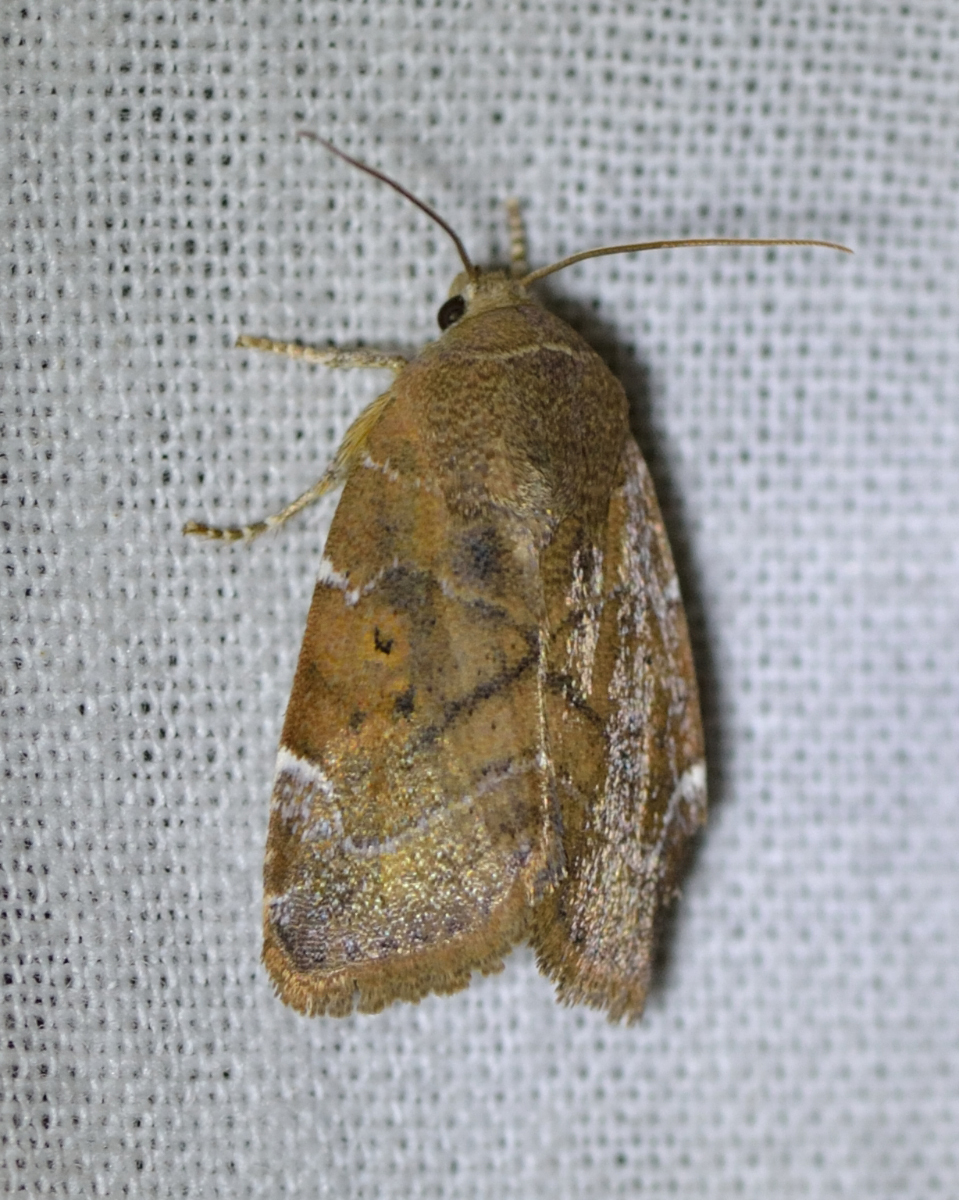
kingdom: Animalia
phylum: Arthropoda
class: Insecta
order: Lepidoptera
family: Noctuidae
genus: Cosmia
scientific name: Cosmia affinis
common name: Lesser-spotted pinion
